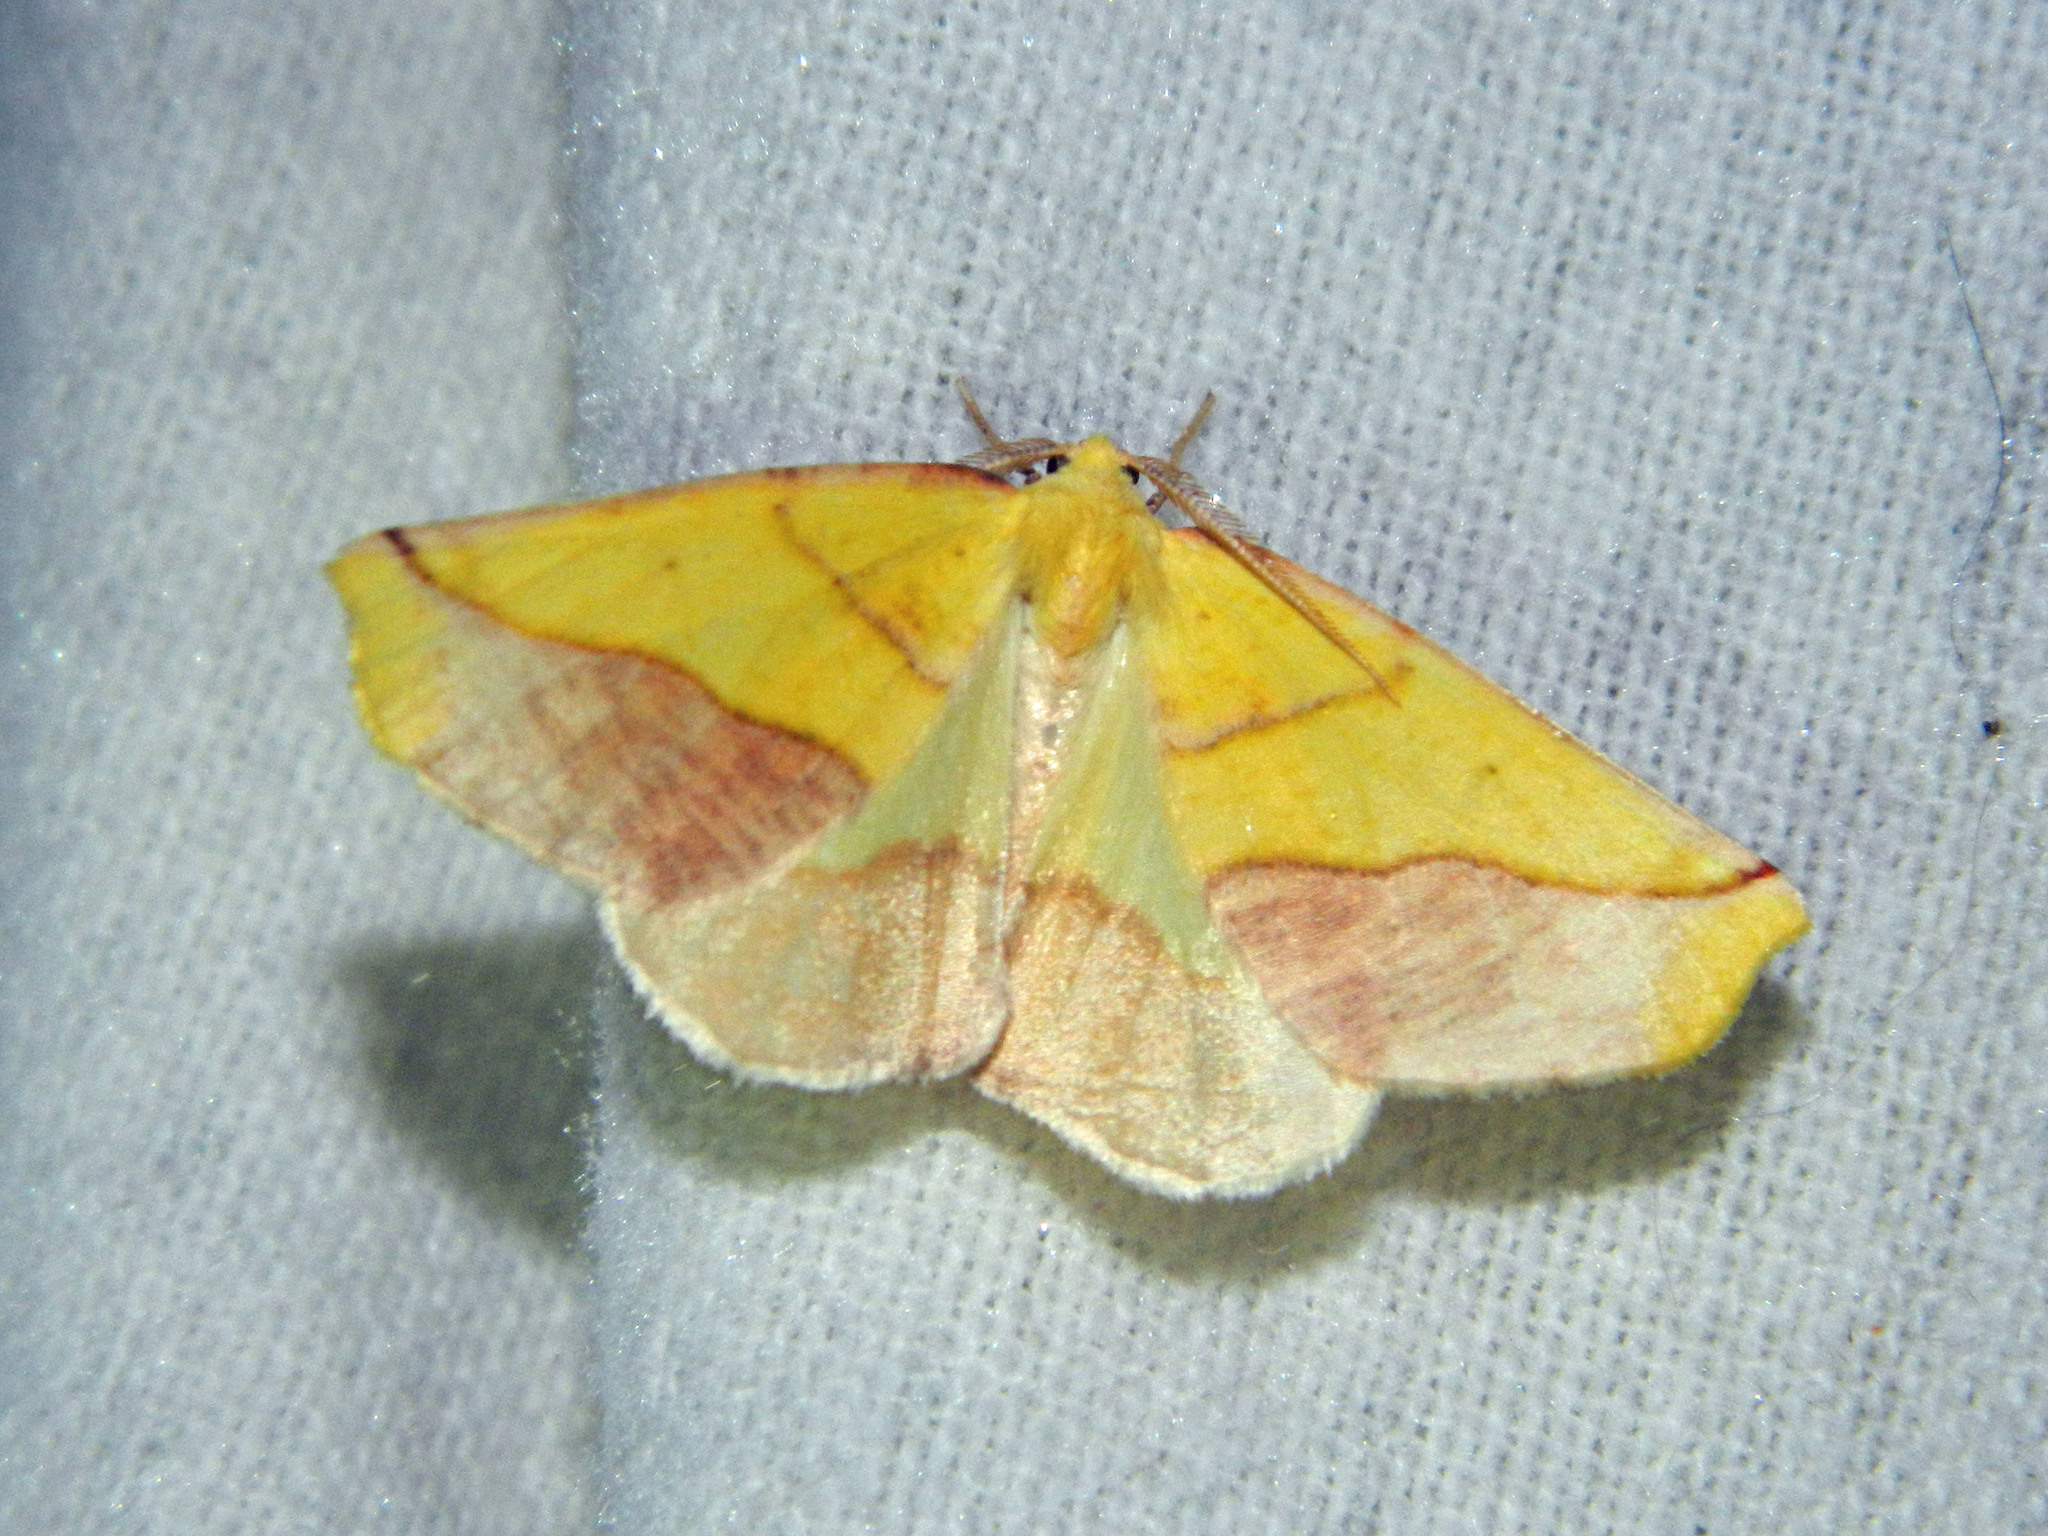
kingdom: Animalia
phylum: Arthropoda
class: Insecta
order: Lepidoptera
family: Geometridae
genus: Sicya
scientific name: Sicya macularia
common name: Sharp-lined yellow
